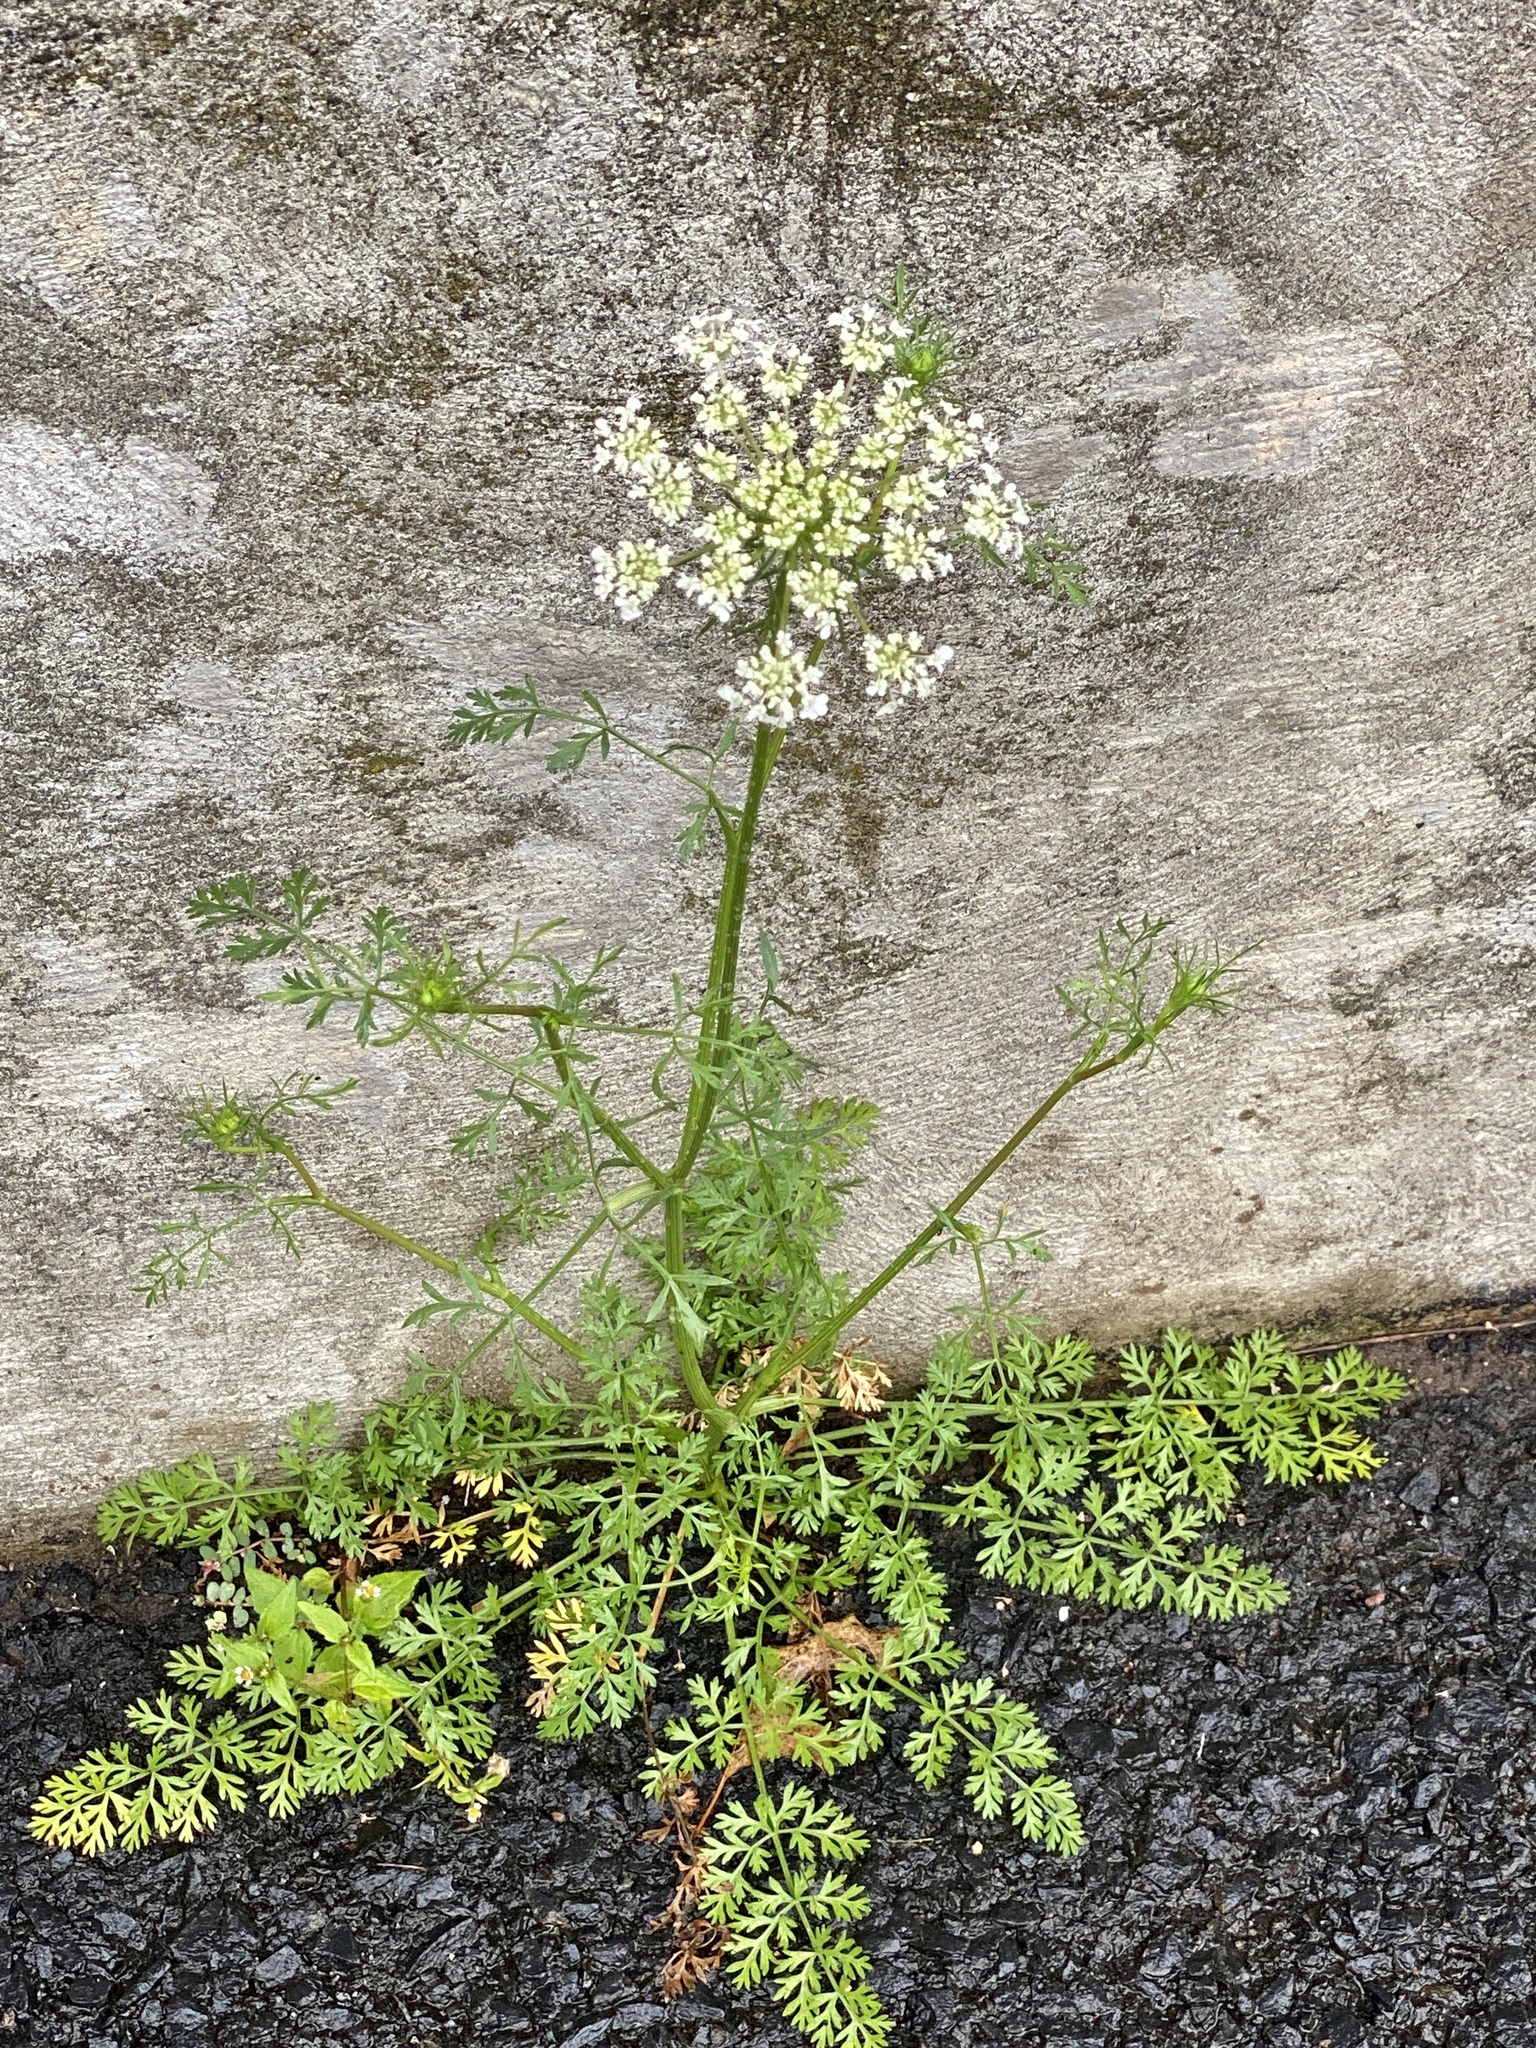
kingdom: Plantae
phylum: Tracheophyta
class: Magnoliopsida
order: Apiales
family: Apiaceae
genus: Daucus
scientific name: Daucus carota
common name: Wild carrot
